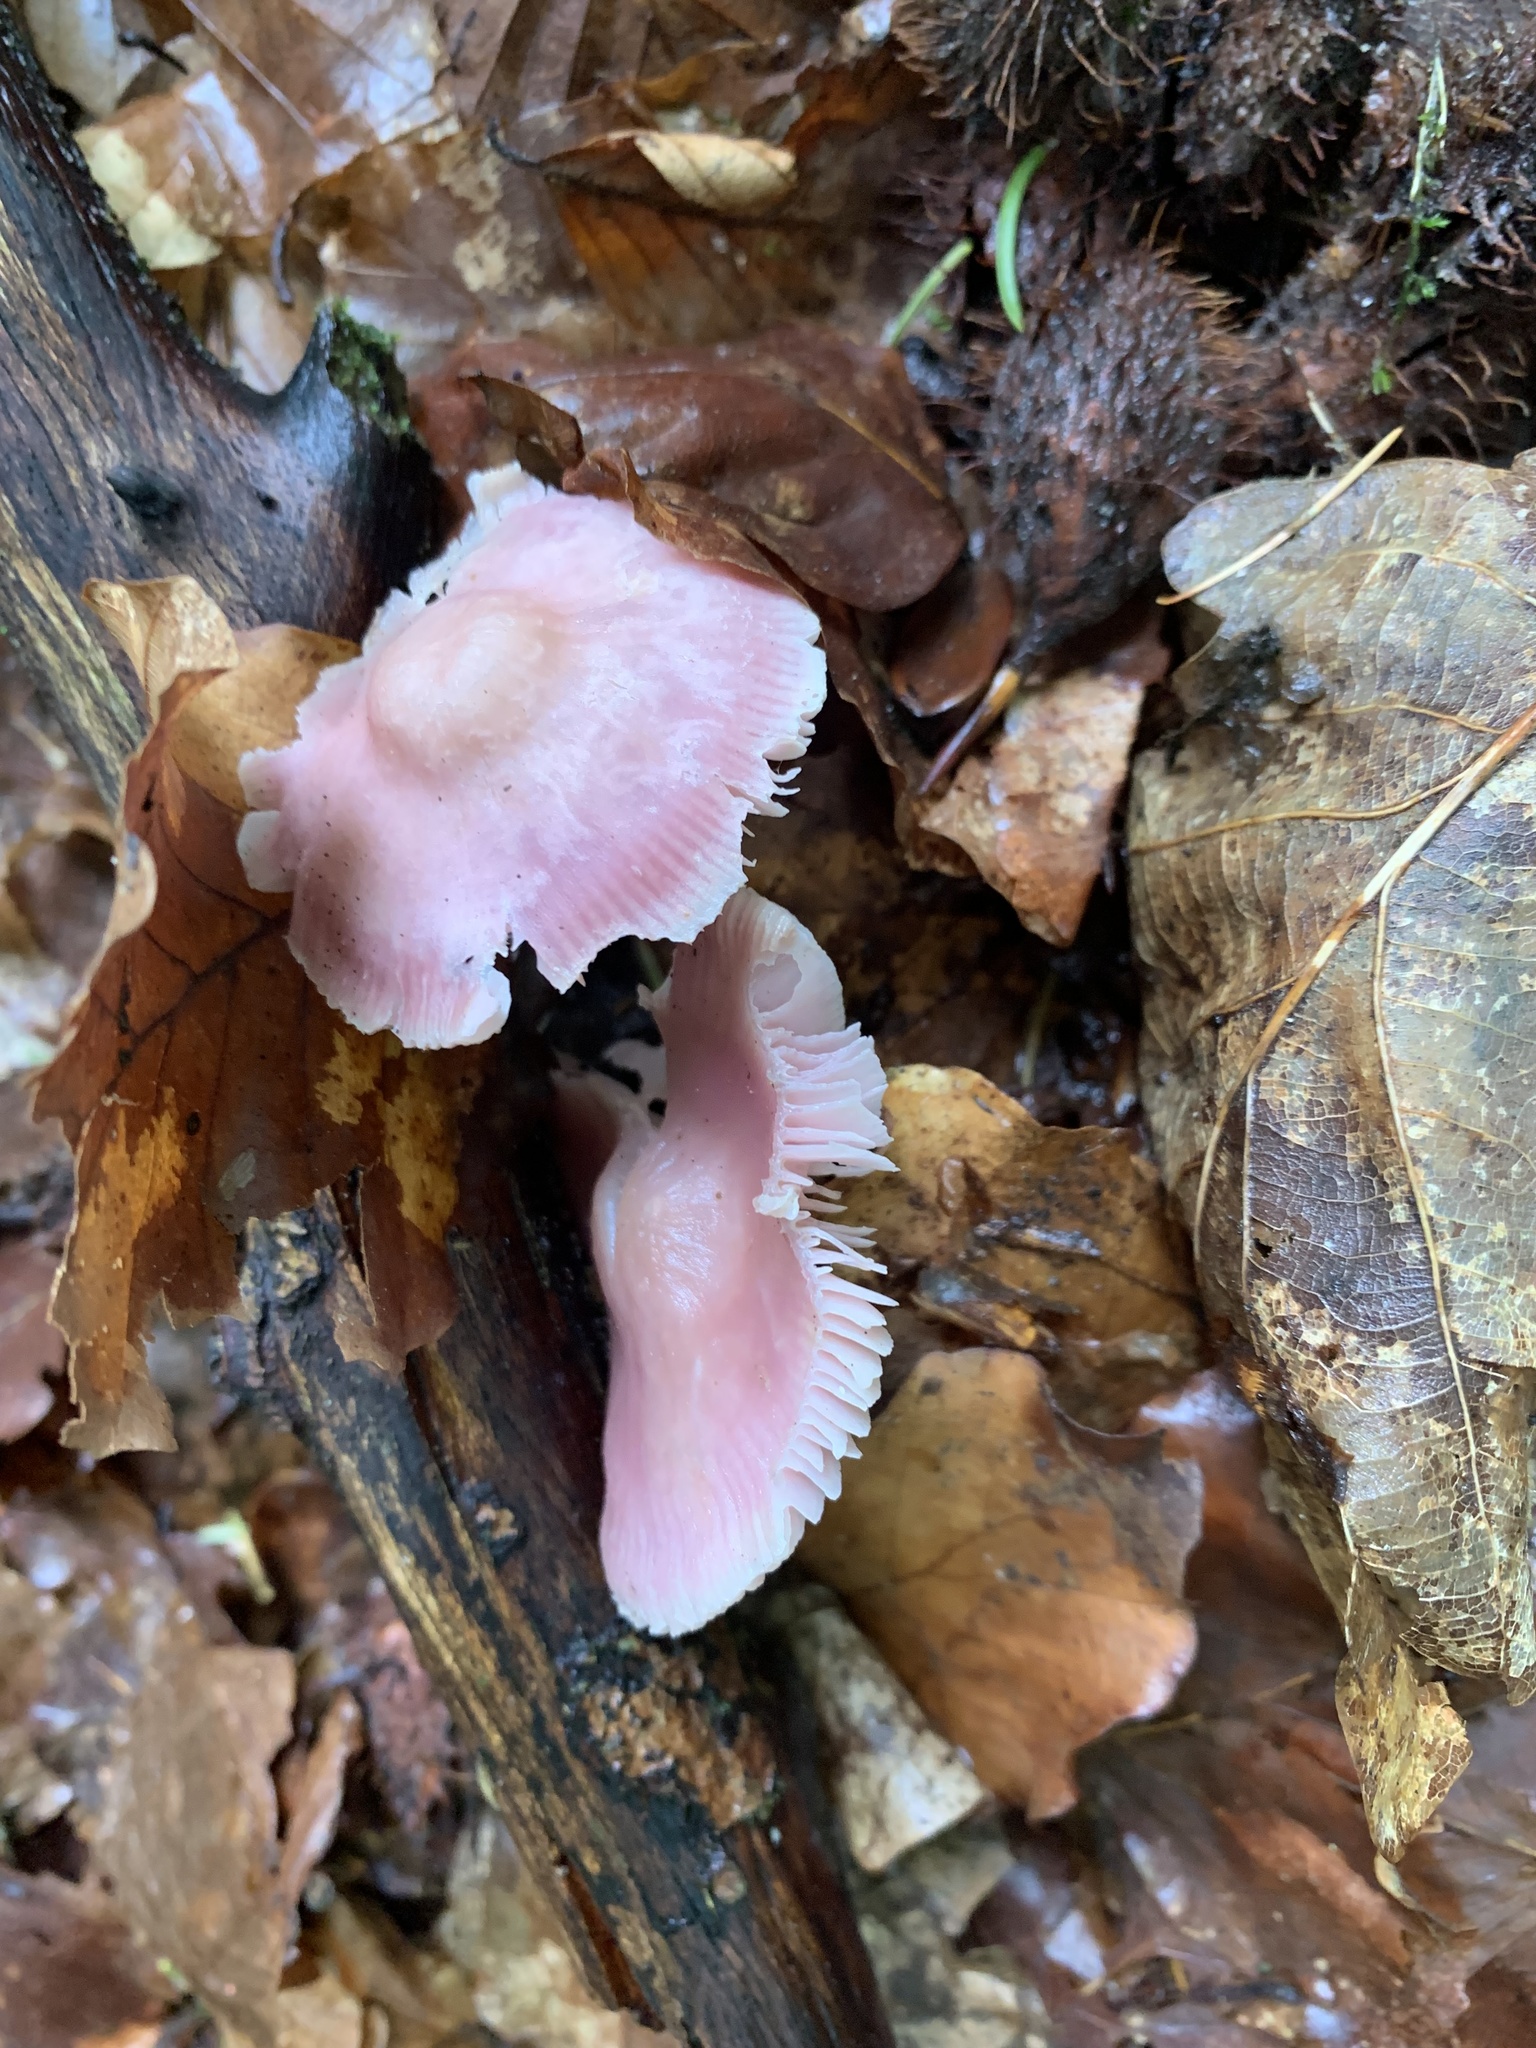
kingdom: Fungi
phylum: Basidiomycota
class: Agaricomycetes
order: Agaricales
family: Mycenaceae
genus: Mycena
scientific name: Mycena rosea
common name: Rosy bonnet
